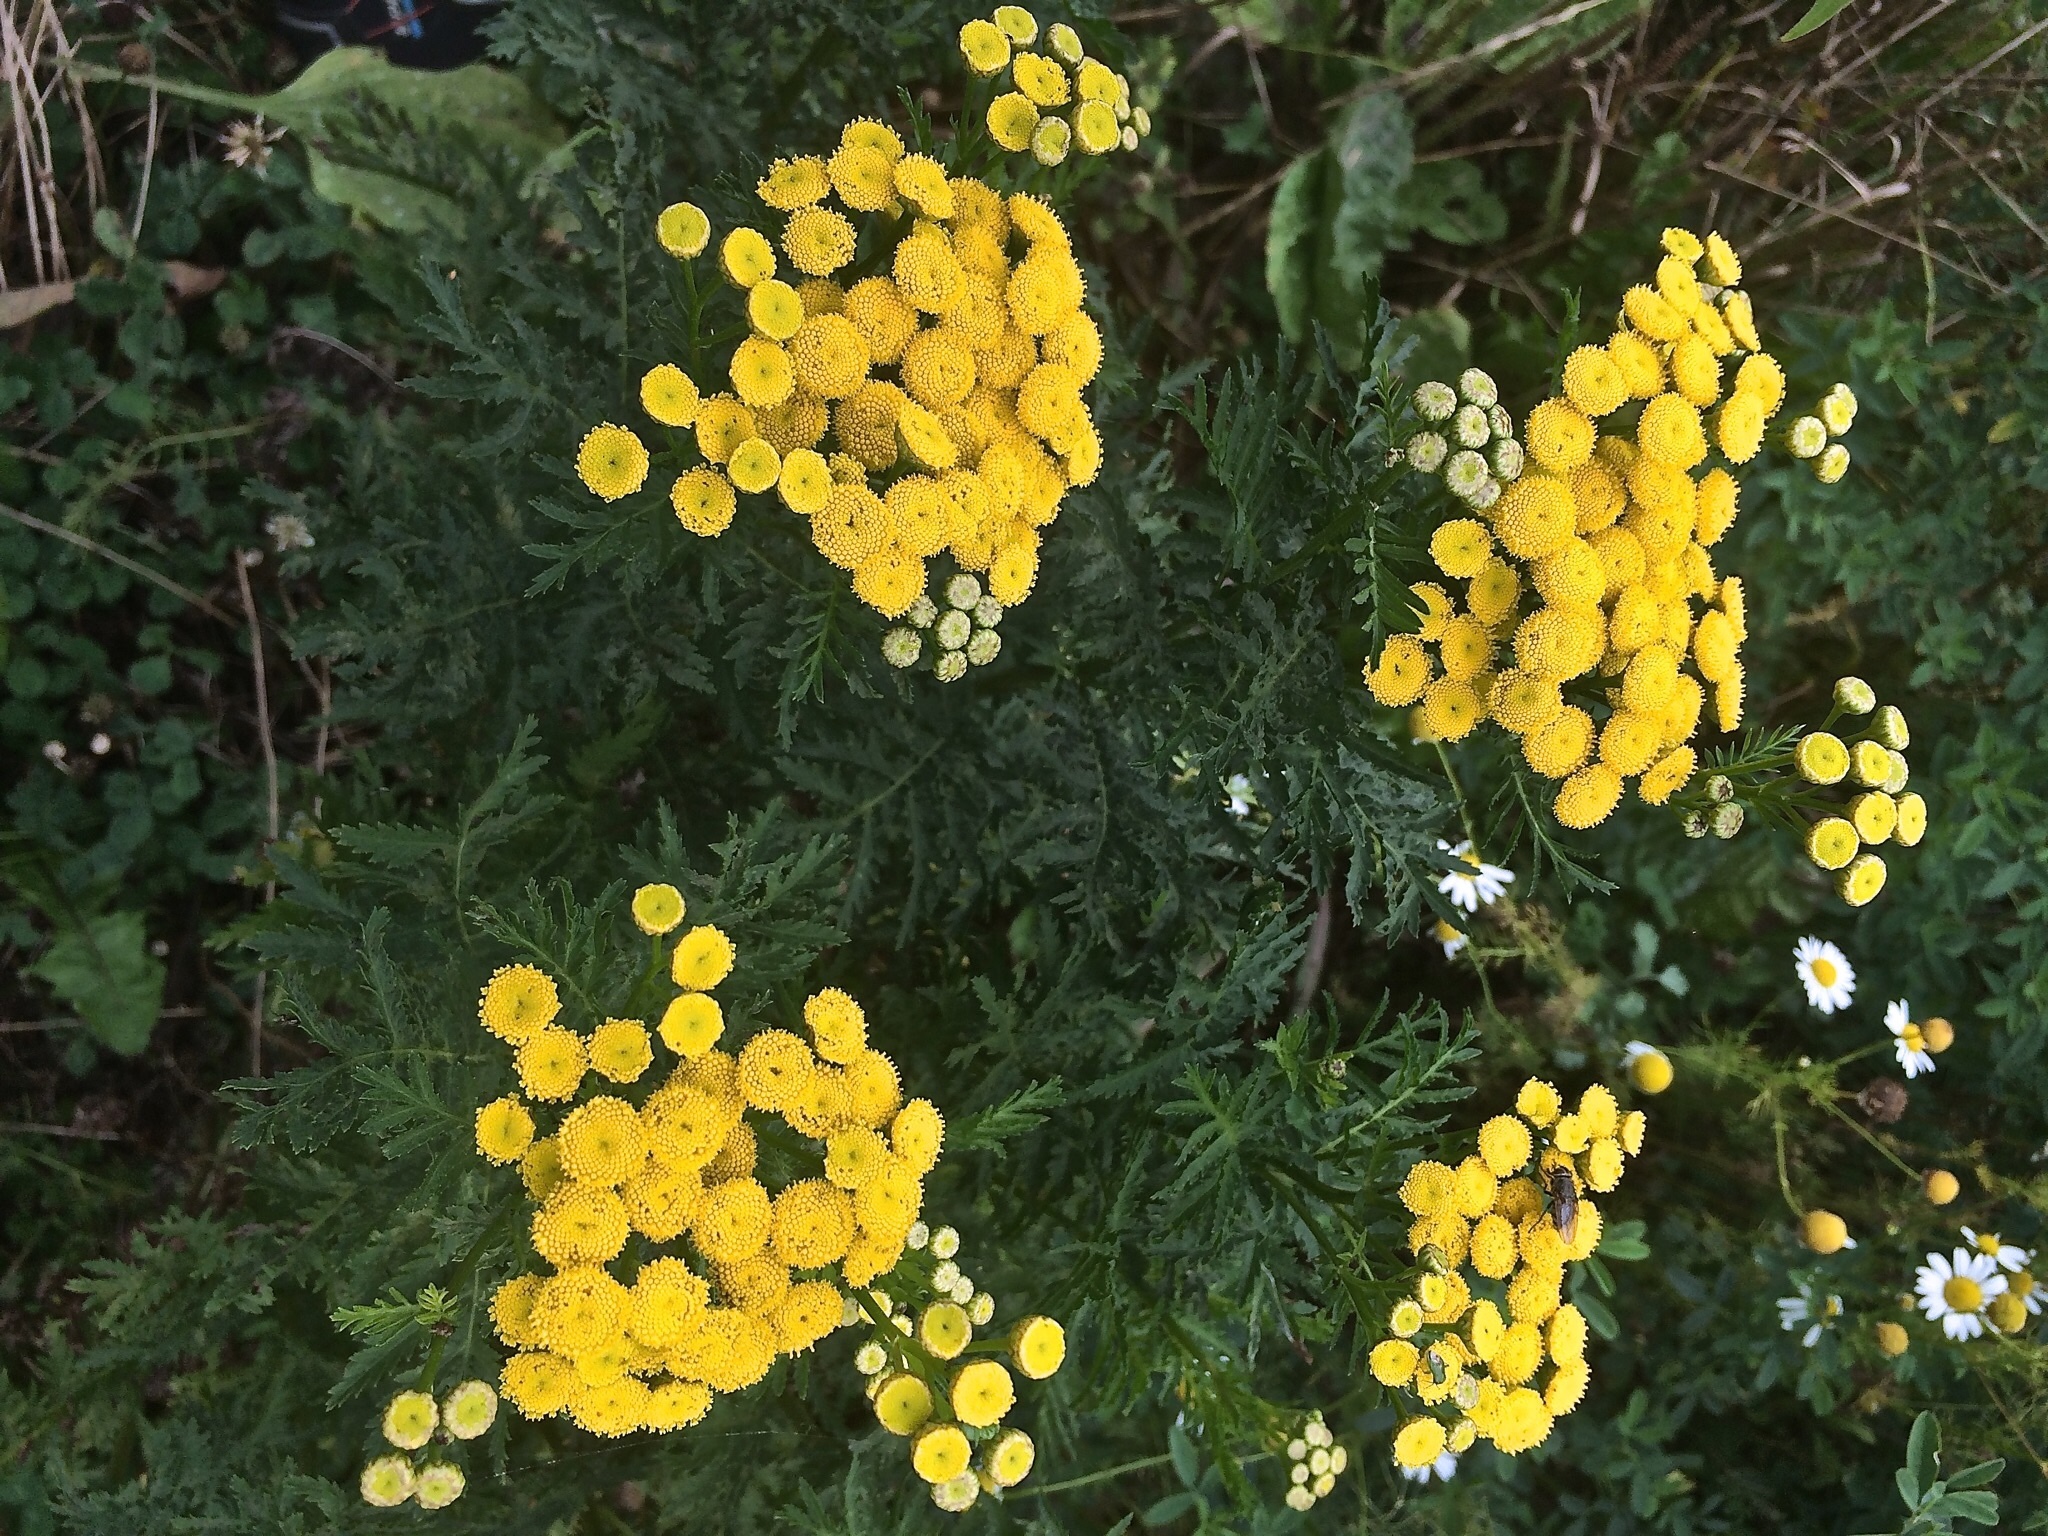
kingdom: Plantae
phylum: Tracheophyta
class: Magnoliopsida
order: Asterales
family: Asteraceae
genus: Tanacetum
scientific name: Tanacetum vulgare
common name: Common tansy
